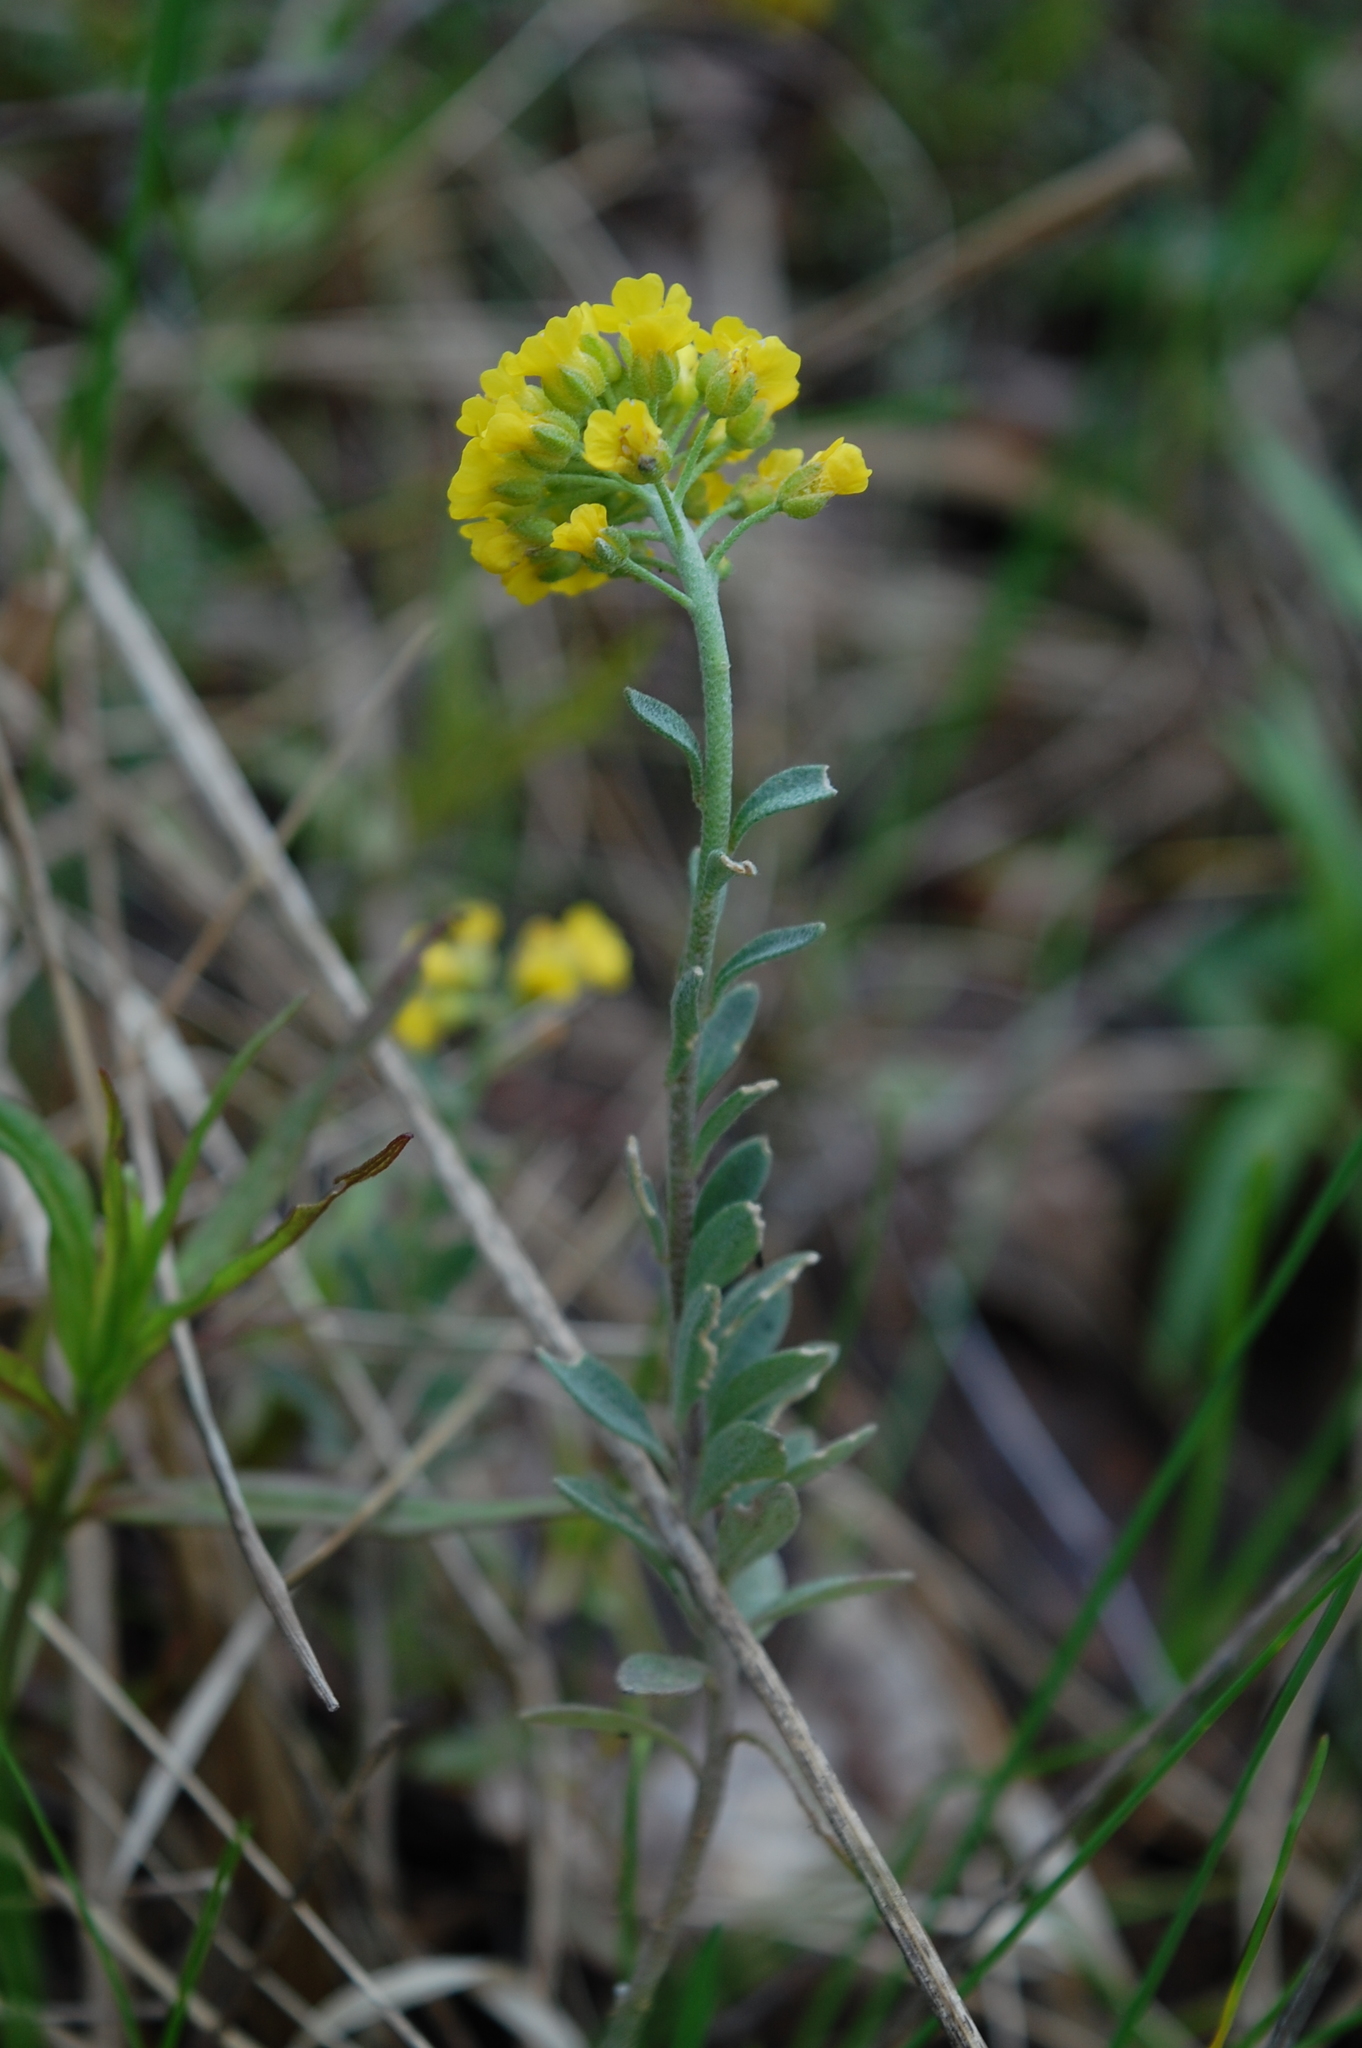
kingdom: Plantae
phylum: Tracheophyta
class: Magnoliopsida
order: Brassicales
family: Brassicaceae
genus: Alyssum
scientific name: Alyssum gmelinii
